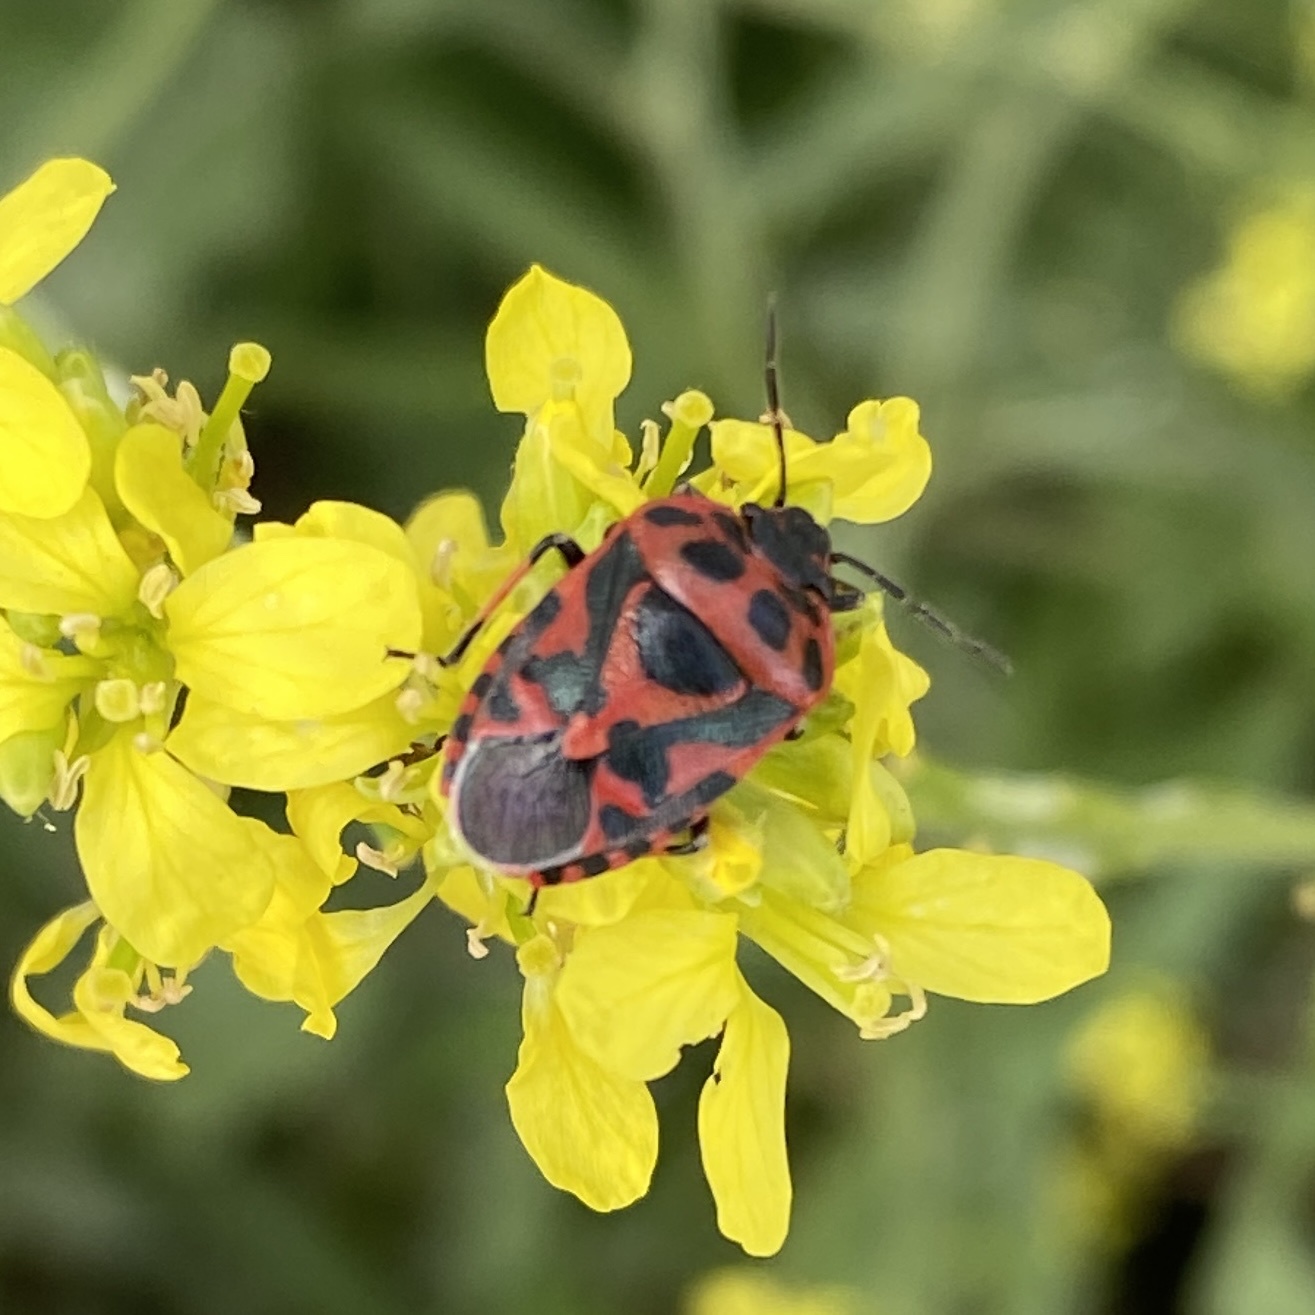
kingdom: Animalia
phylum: Arthropoda
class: Insecta
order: Hemiptera
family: Pentatomidae
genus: Eurydema
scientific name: Eurydema ornata
